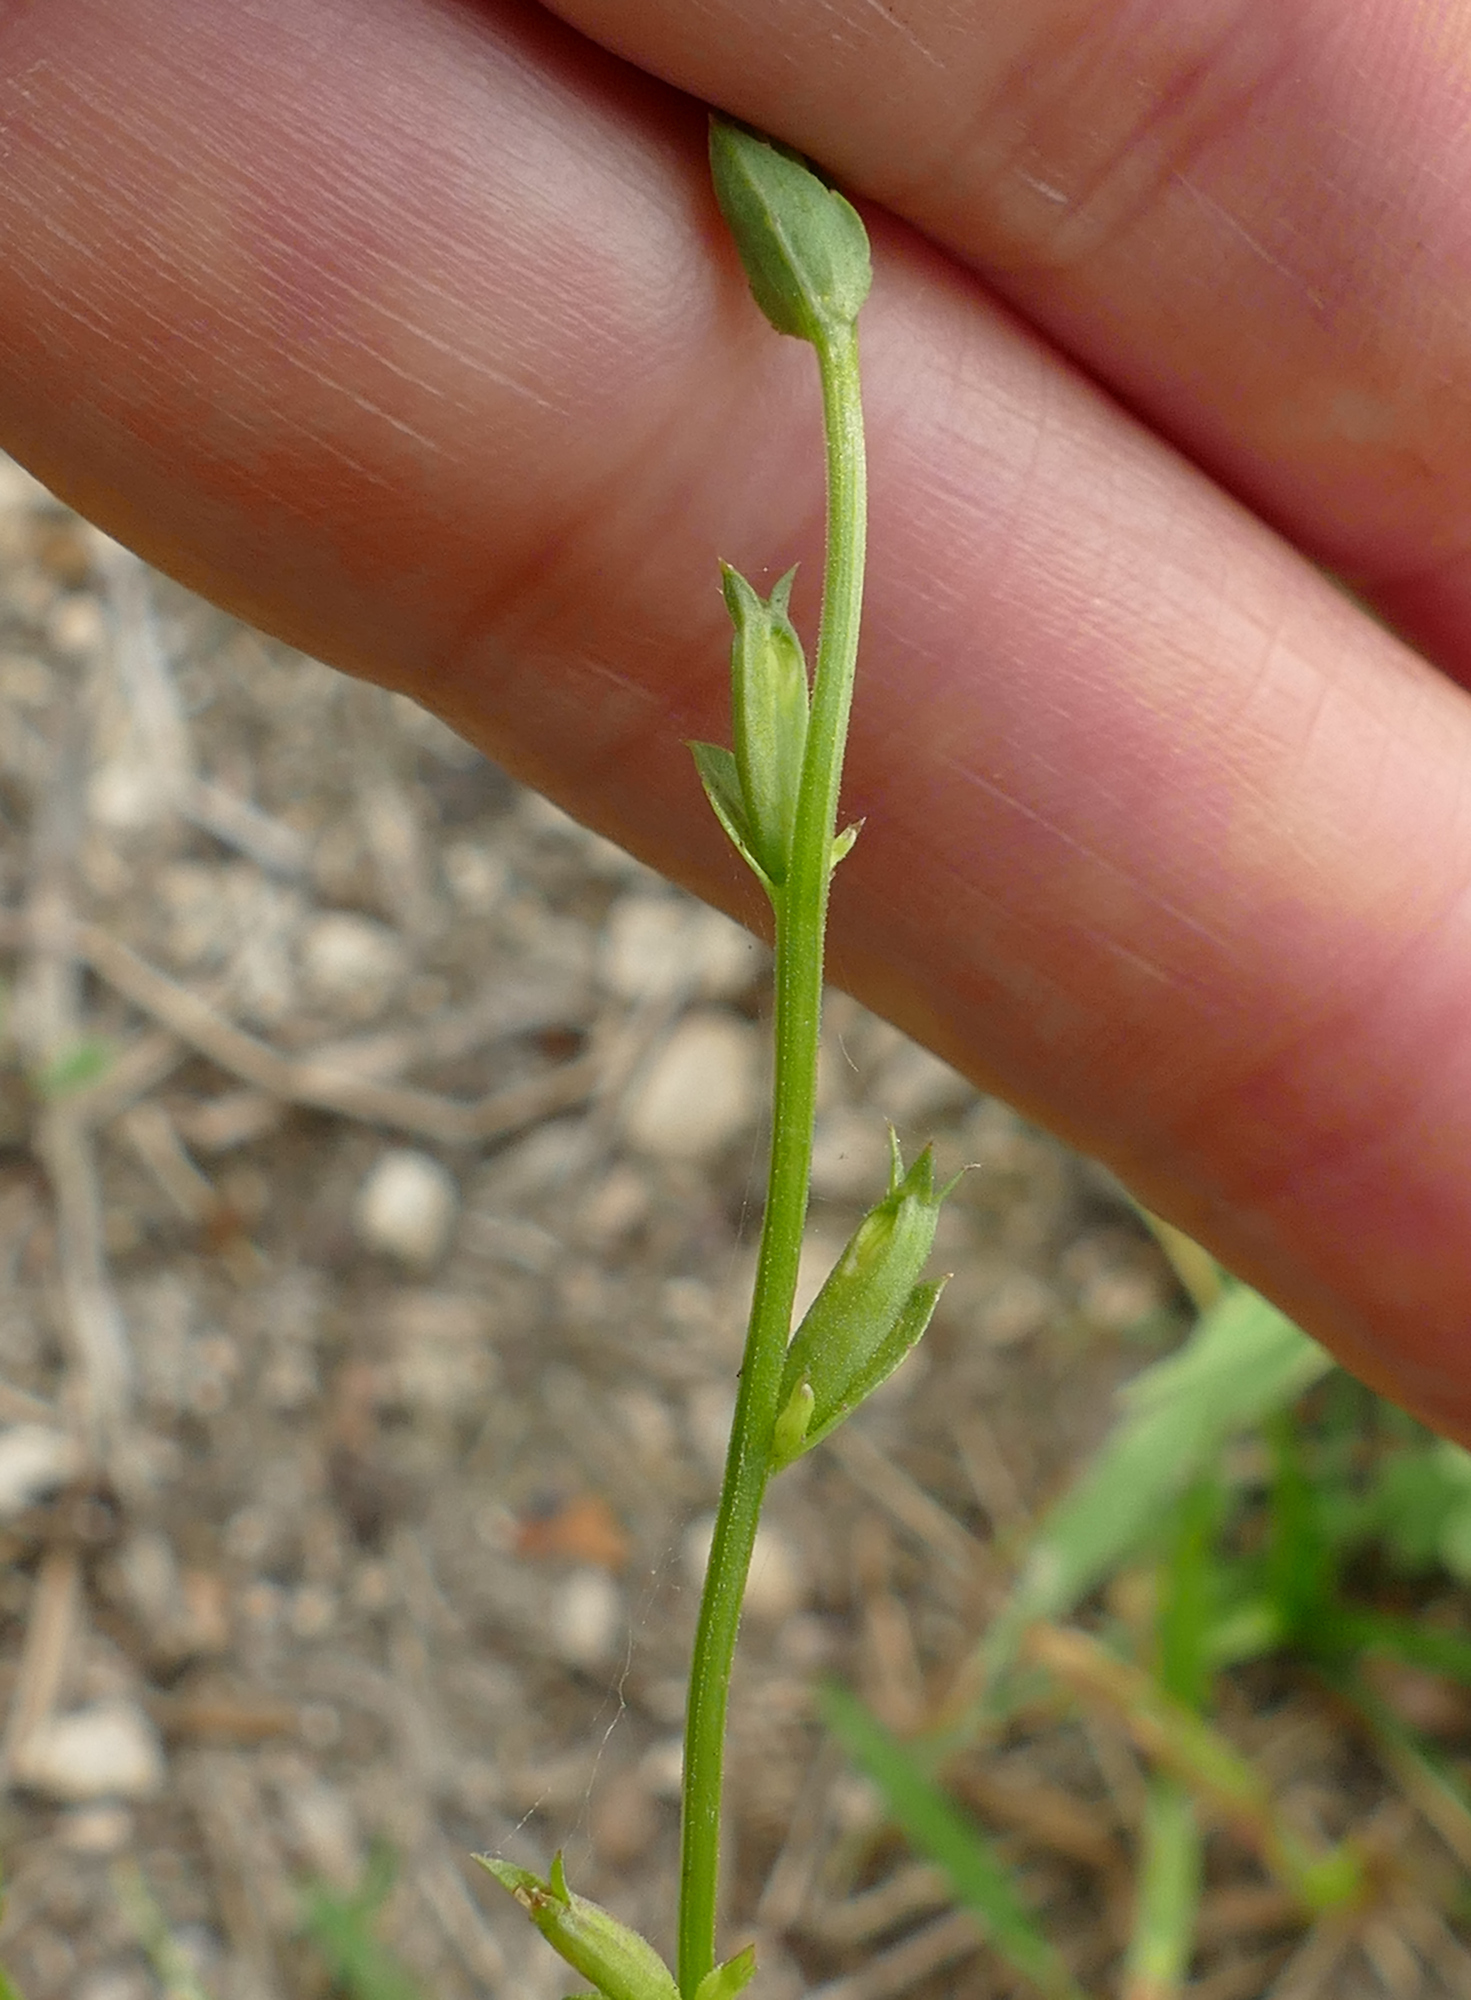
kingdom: Plantae
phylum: Tracheophyta
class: Magnoliopsida
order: Asterales
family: Campanulaceae
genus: Triodanis
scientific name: Triodanis biflora
